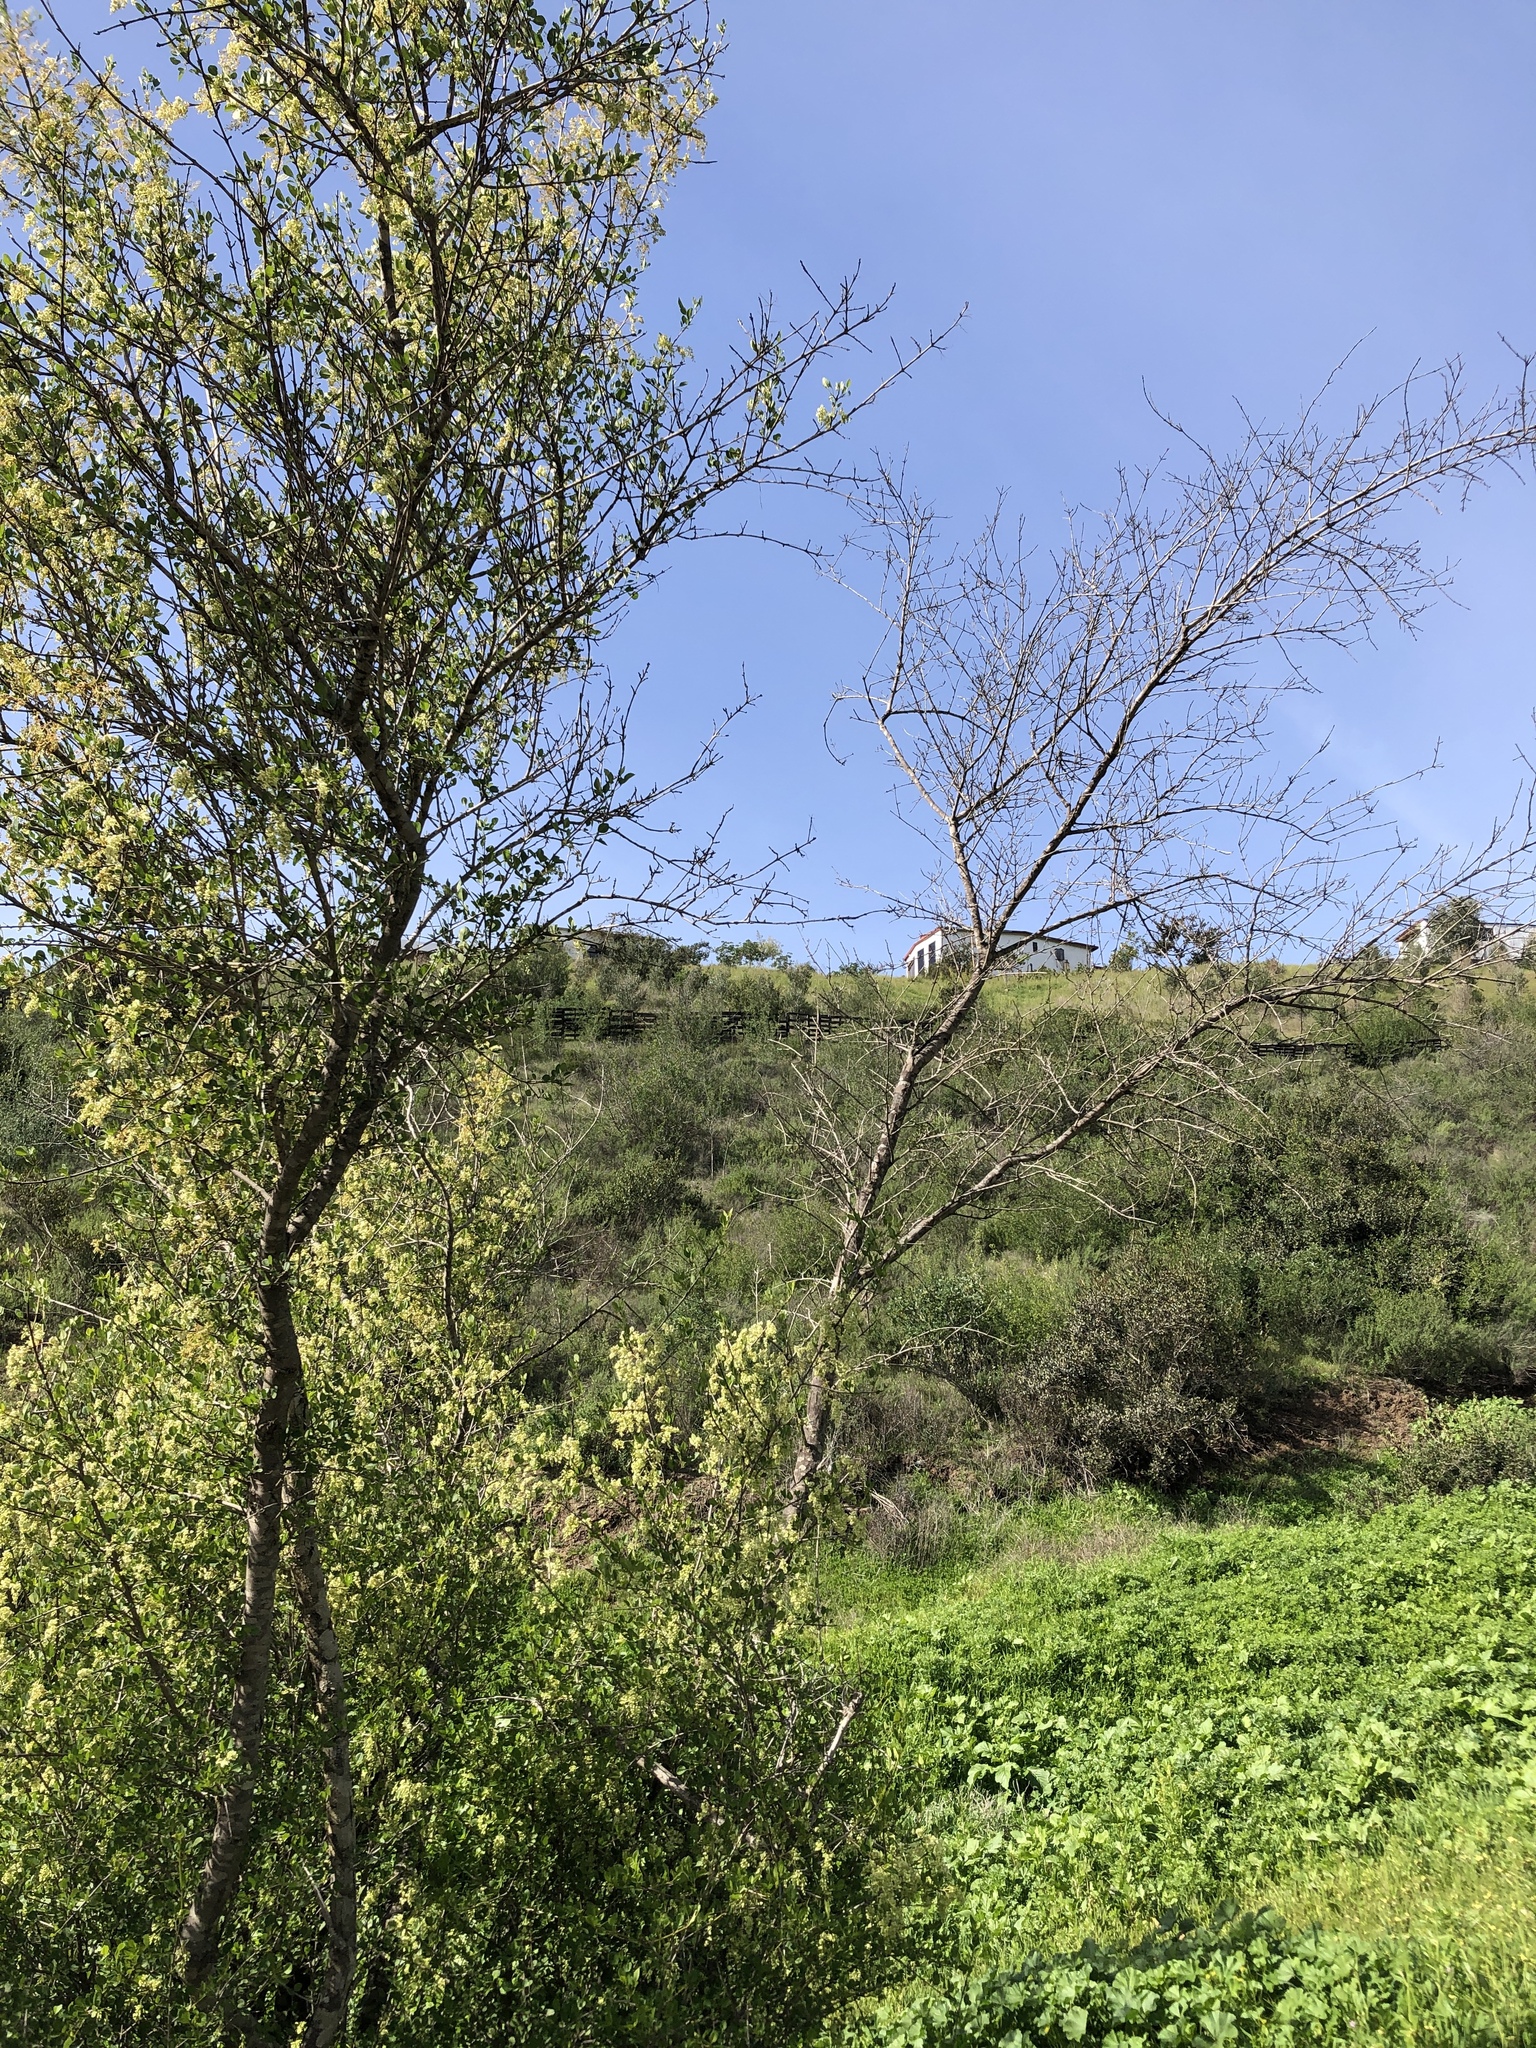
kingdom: Plantae
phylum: Tracheophyta
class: Magnoliopsida
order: Lamiales
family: Oleaceae
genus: Fraxinus
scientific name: Fraxinus dipetala
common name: California ash
